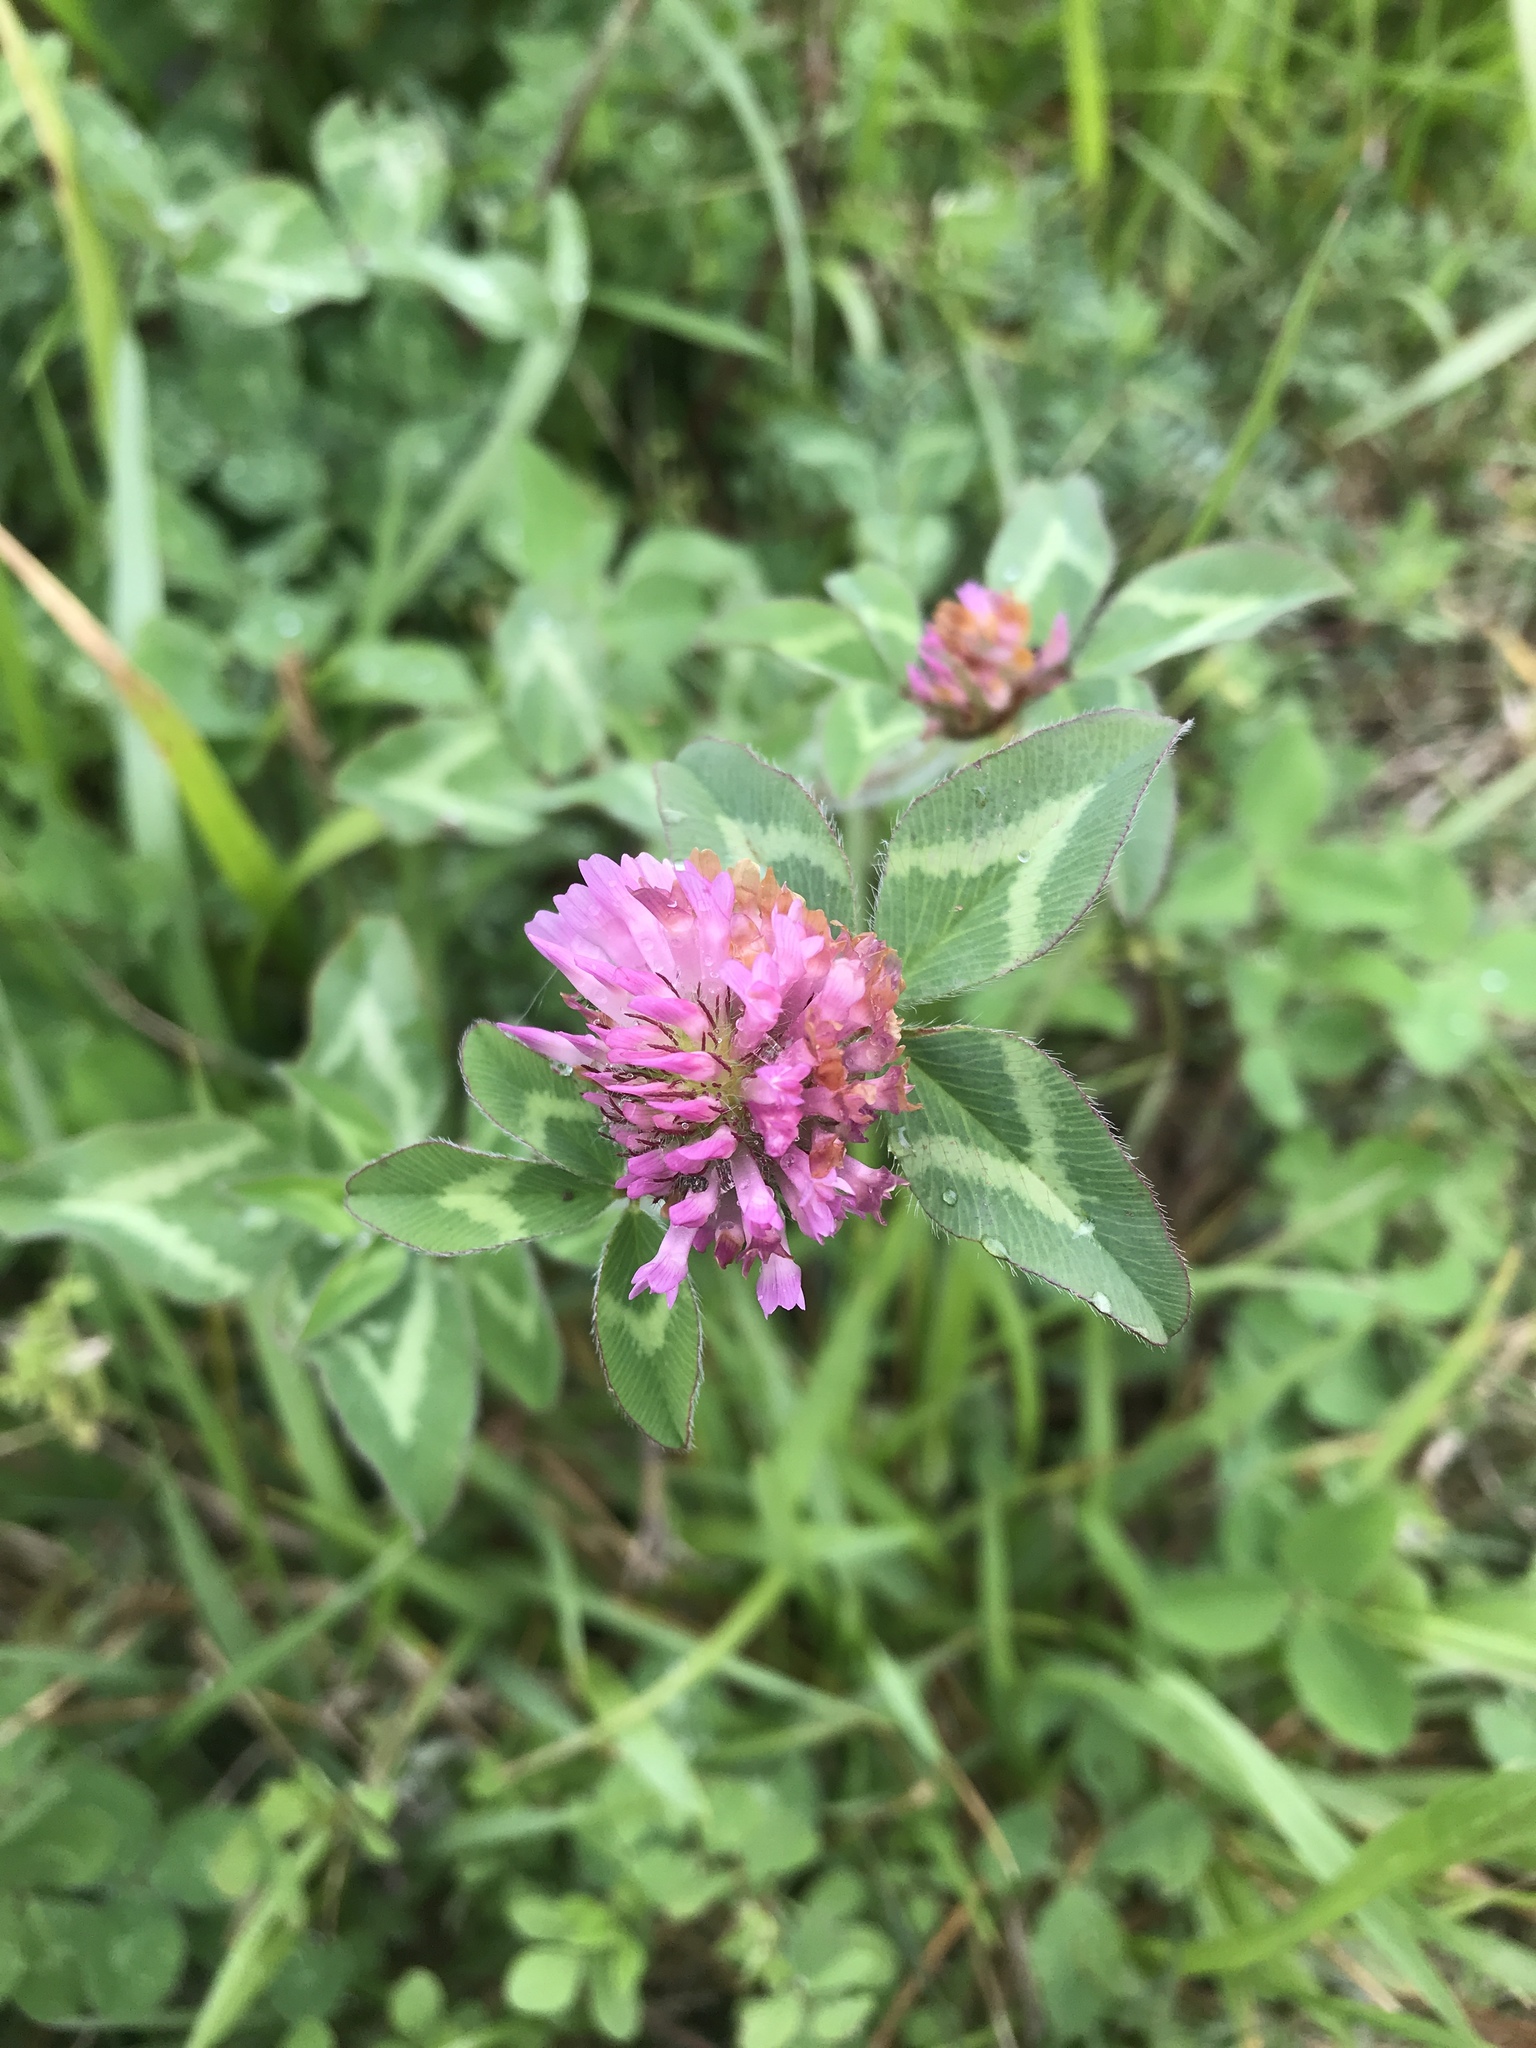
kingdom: Plantae
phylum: Tracheophyta
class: Magnoliopsida
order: Fabales
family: Fabaceae
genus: Trifolium
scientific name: Trifolium pratense
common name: Red clover
